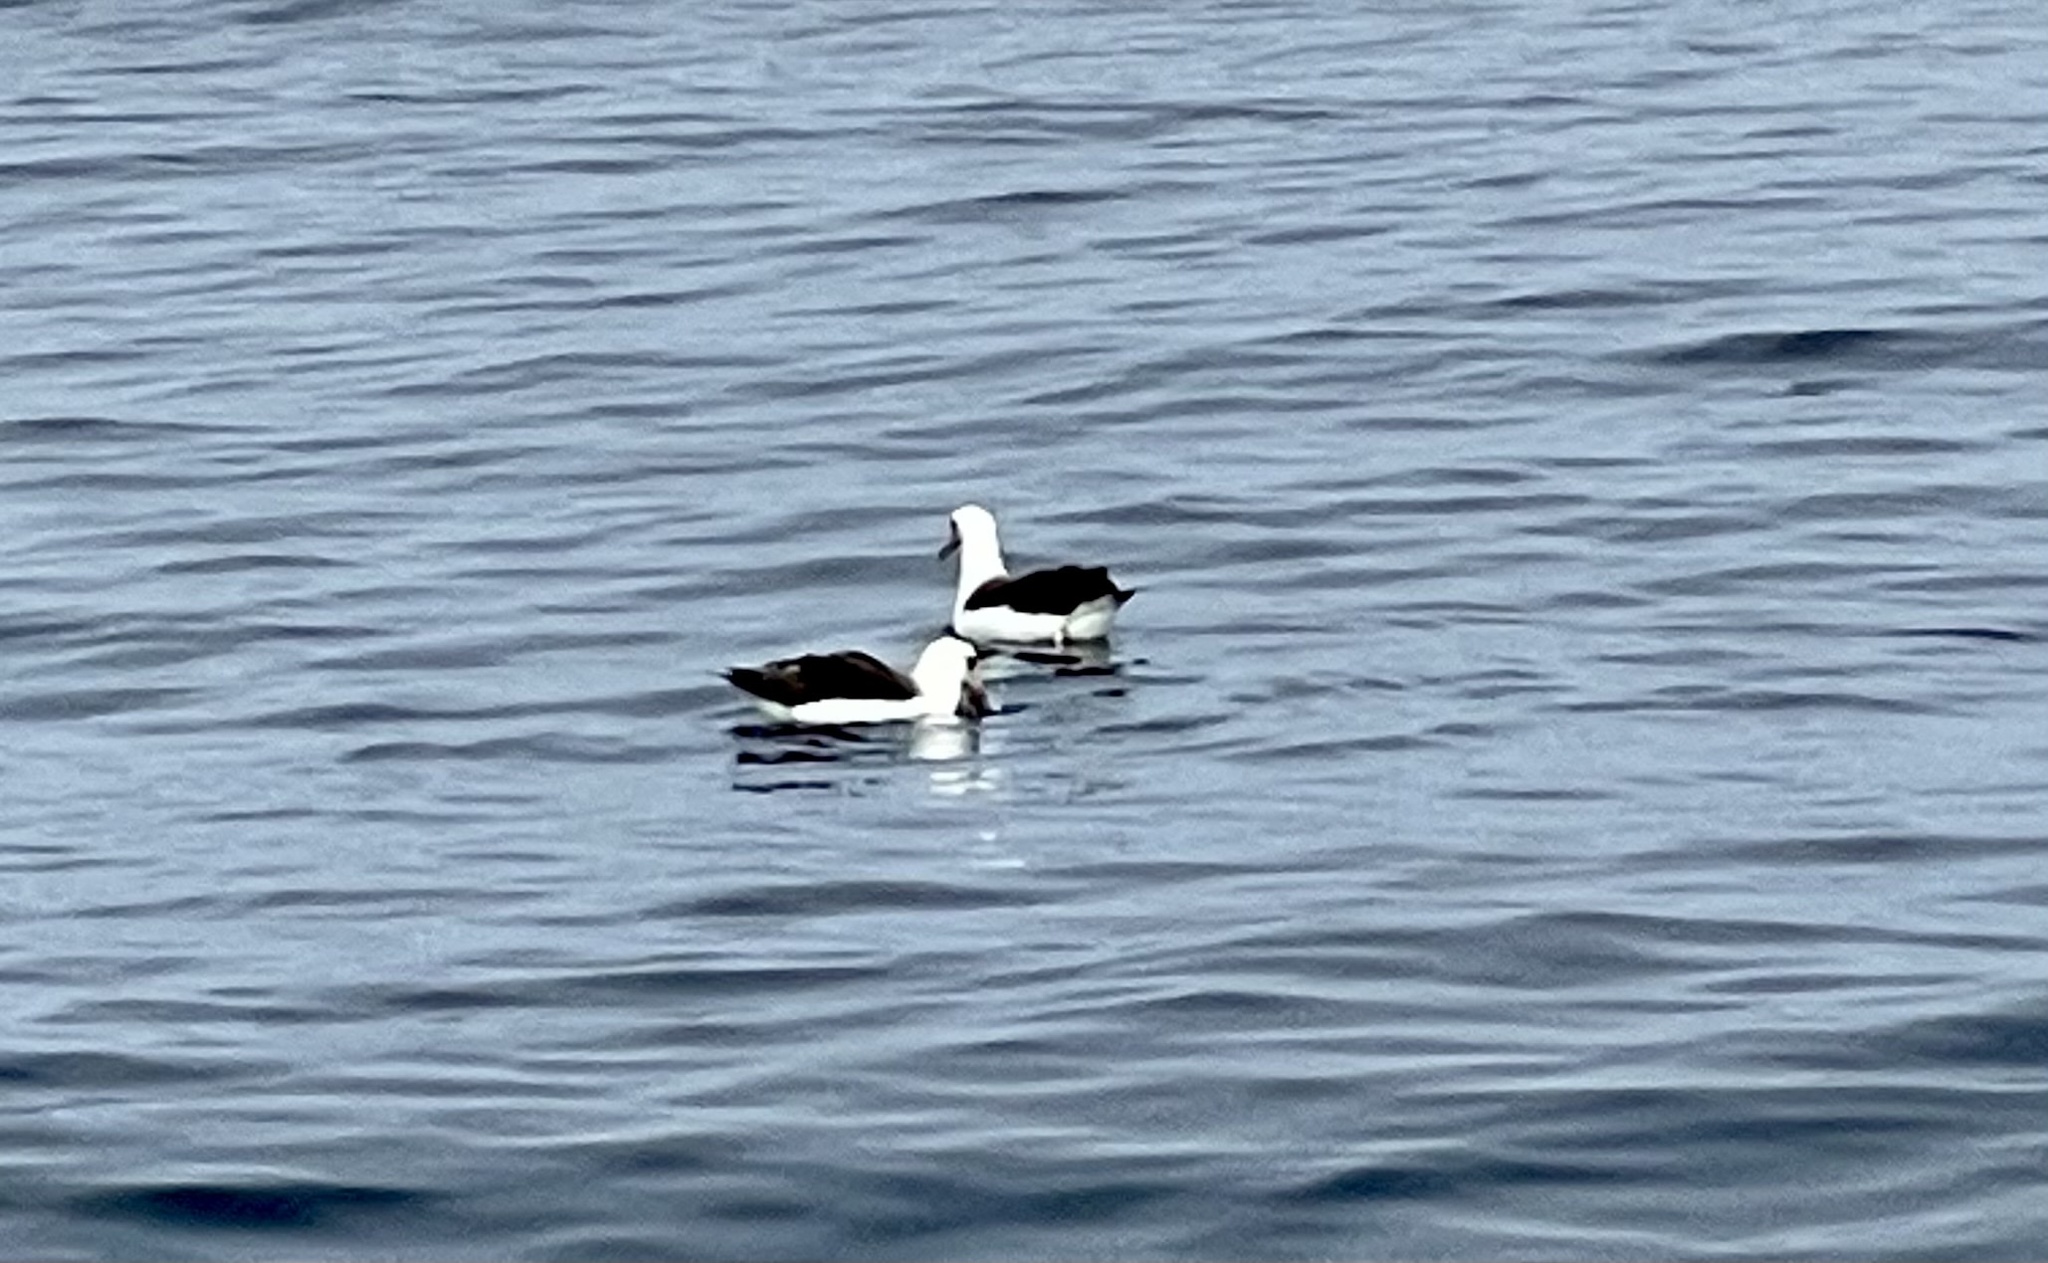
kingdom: Animalia
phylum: Chordata
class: Aves
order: Procellariiformes
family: Diomedeidae
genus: Phoebastria
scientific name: Phoebastria immutabilis
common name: Laysan albatross
